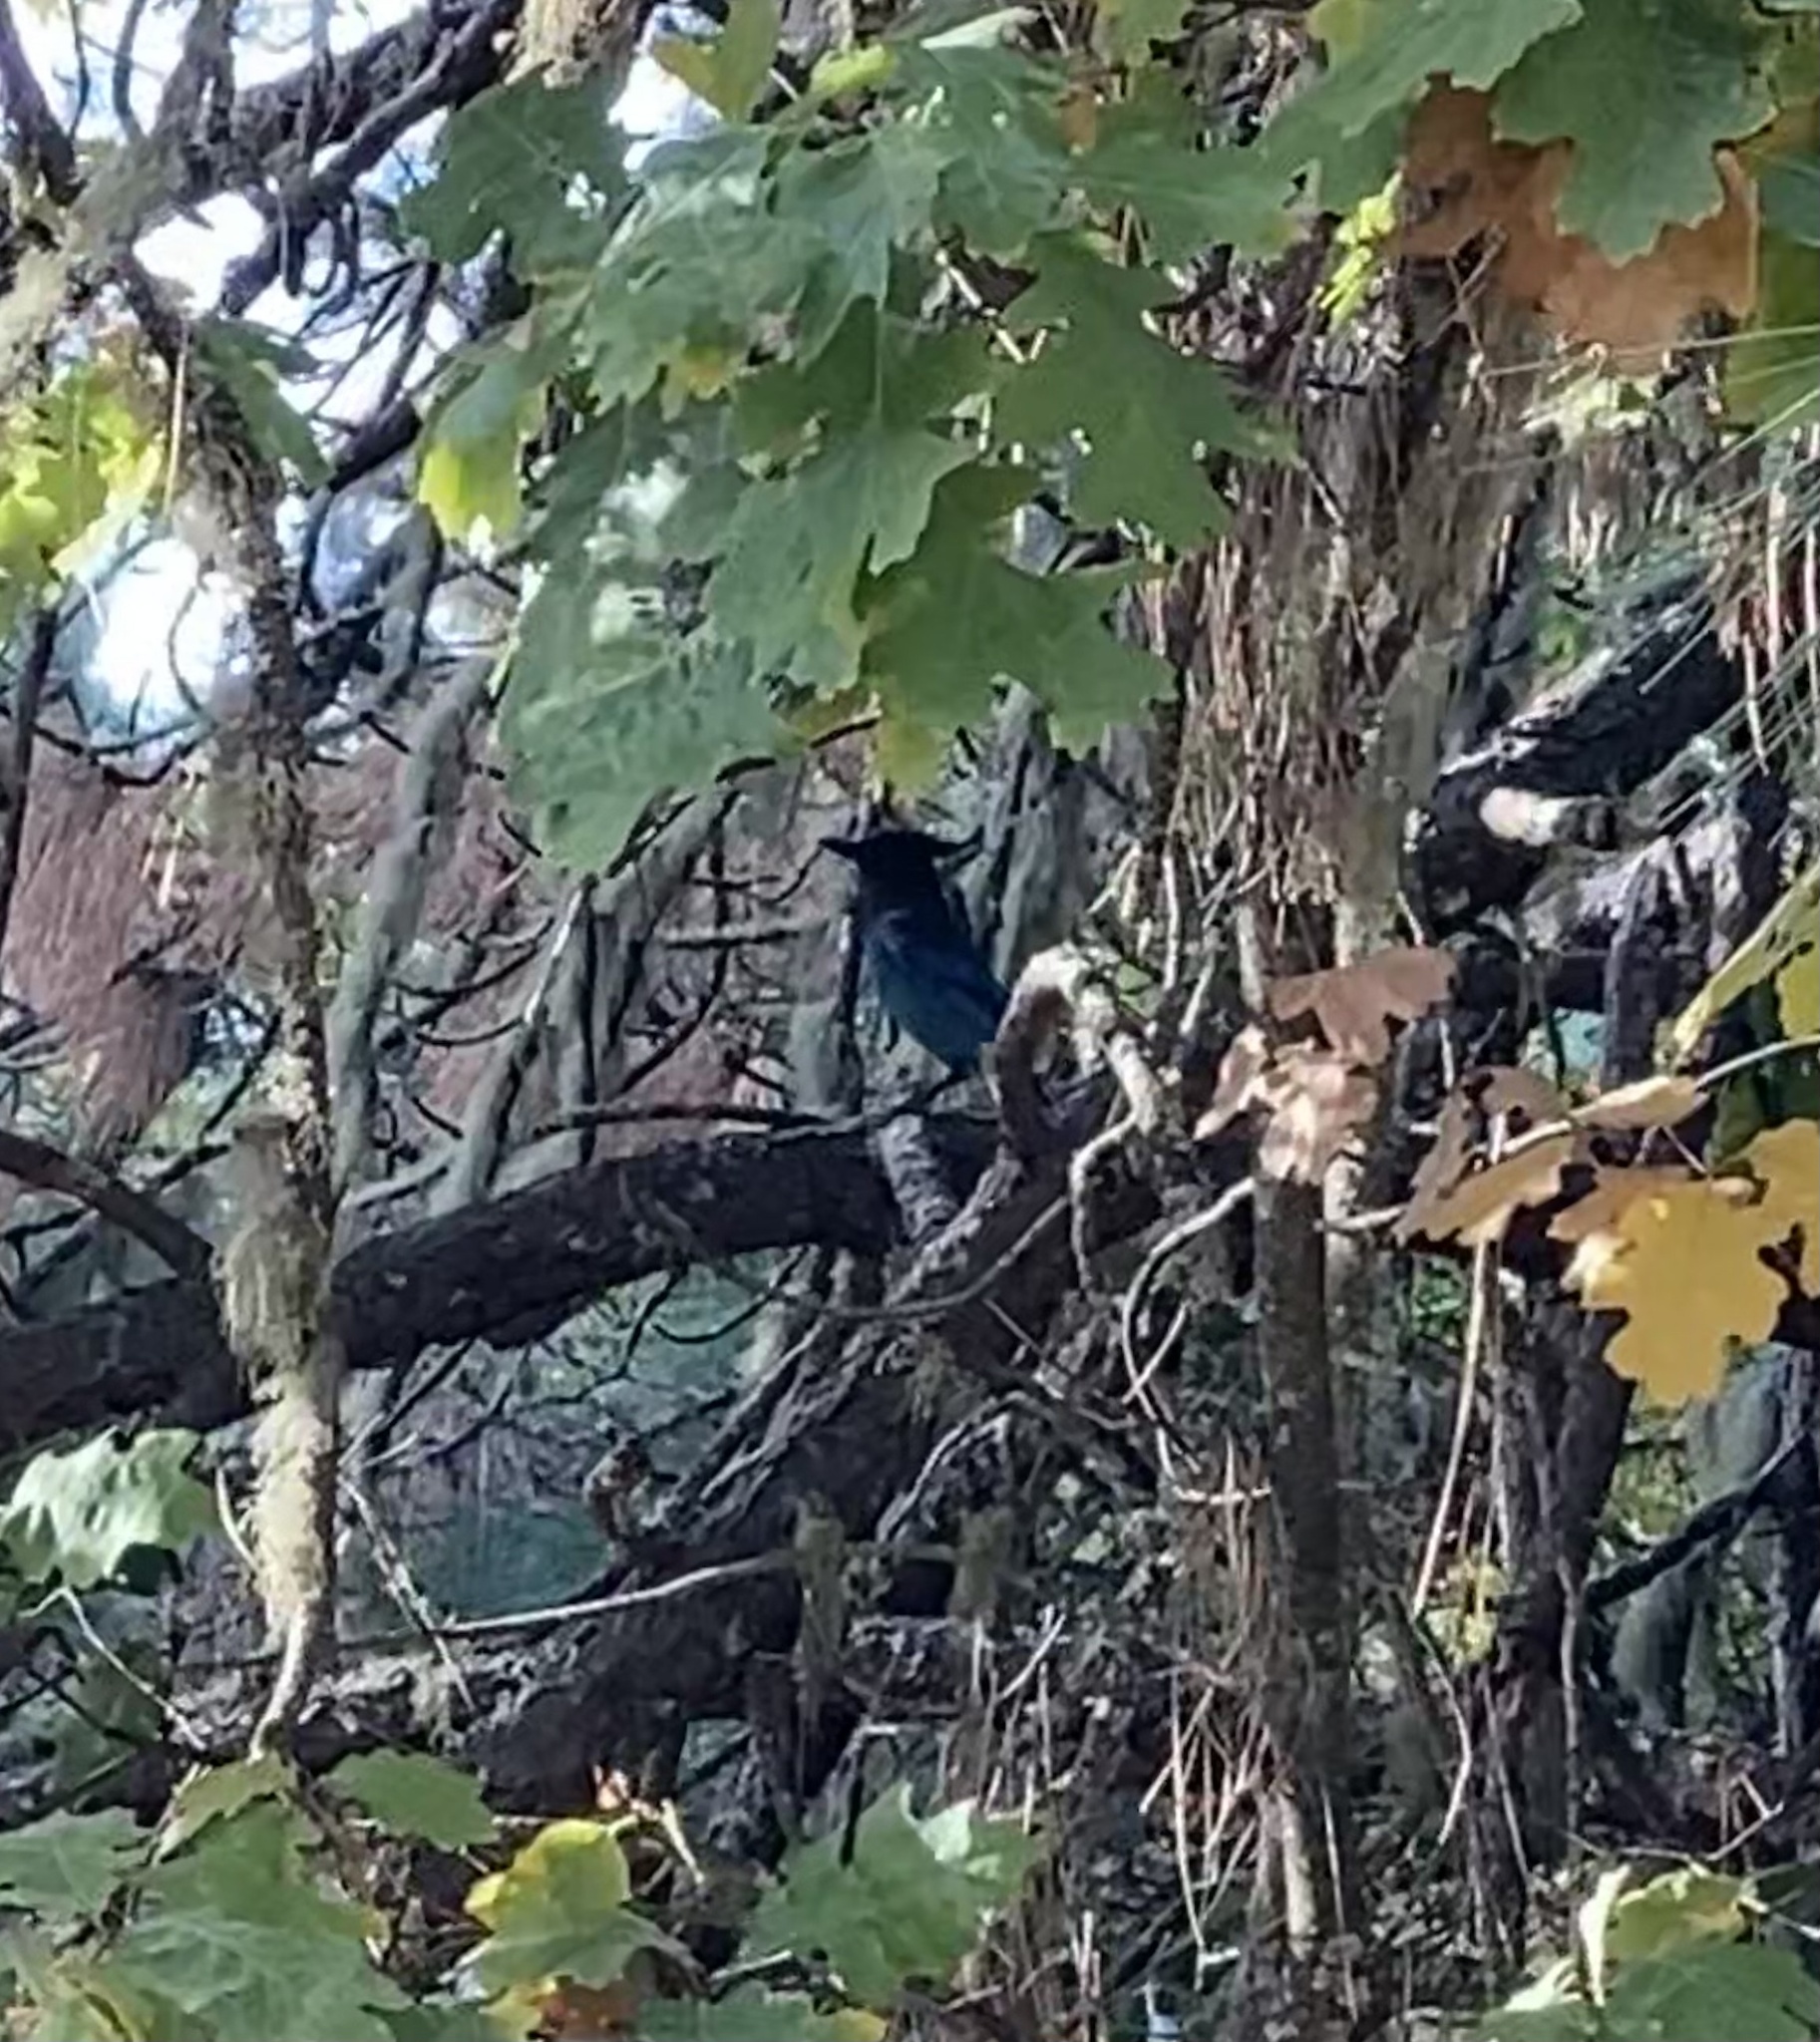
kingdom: Animalia
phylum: Chordata
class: Aves
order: Passeriformes
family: Corvidae
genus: Cyanocitta
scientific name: Cyanocitta stelleri
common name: Steller's jay
